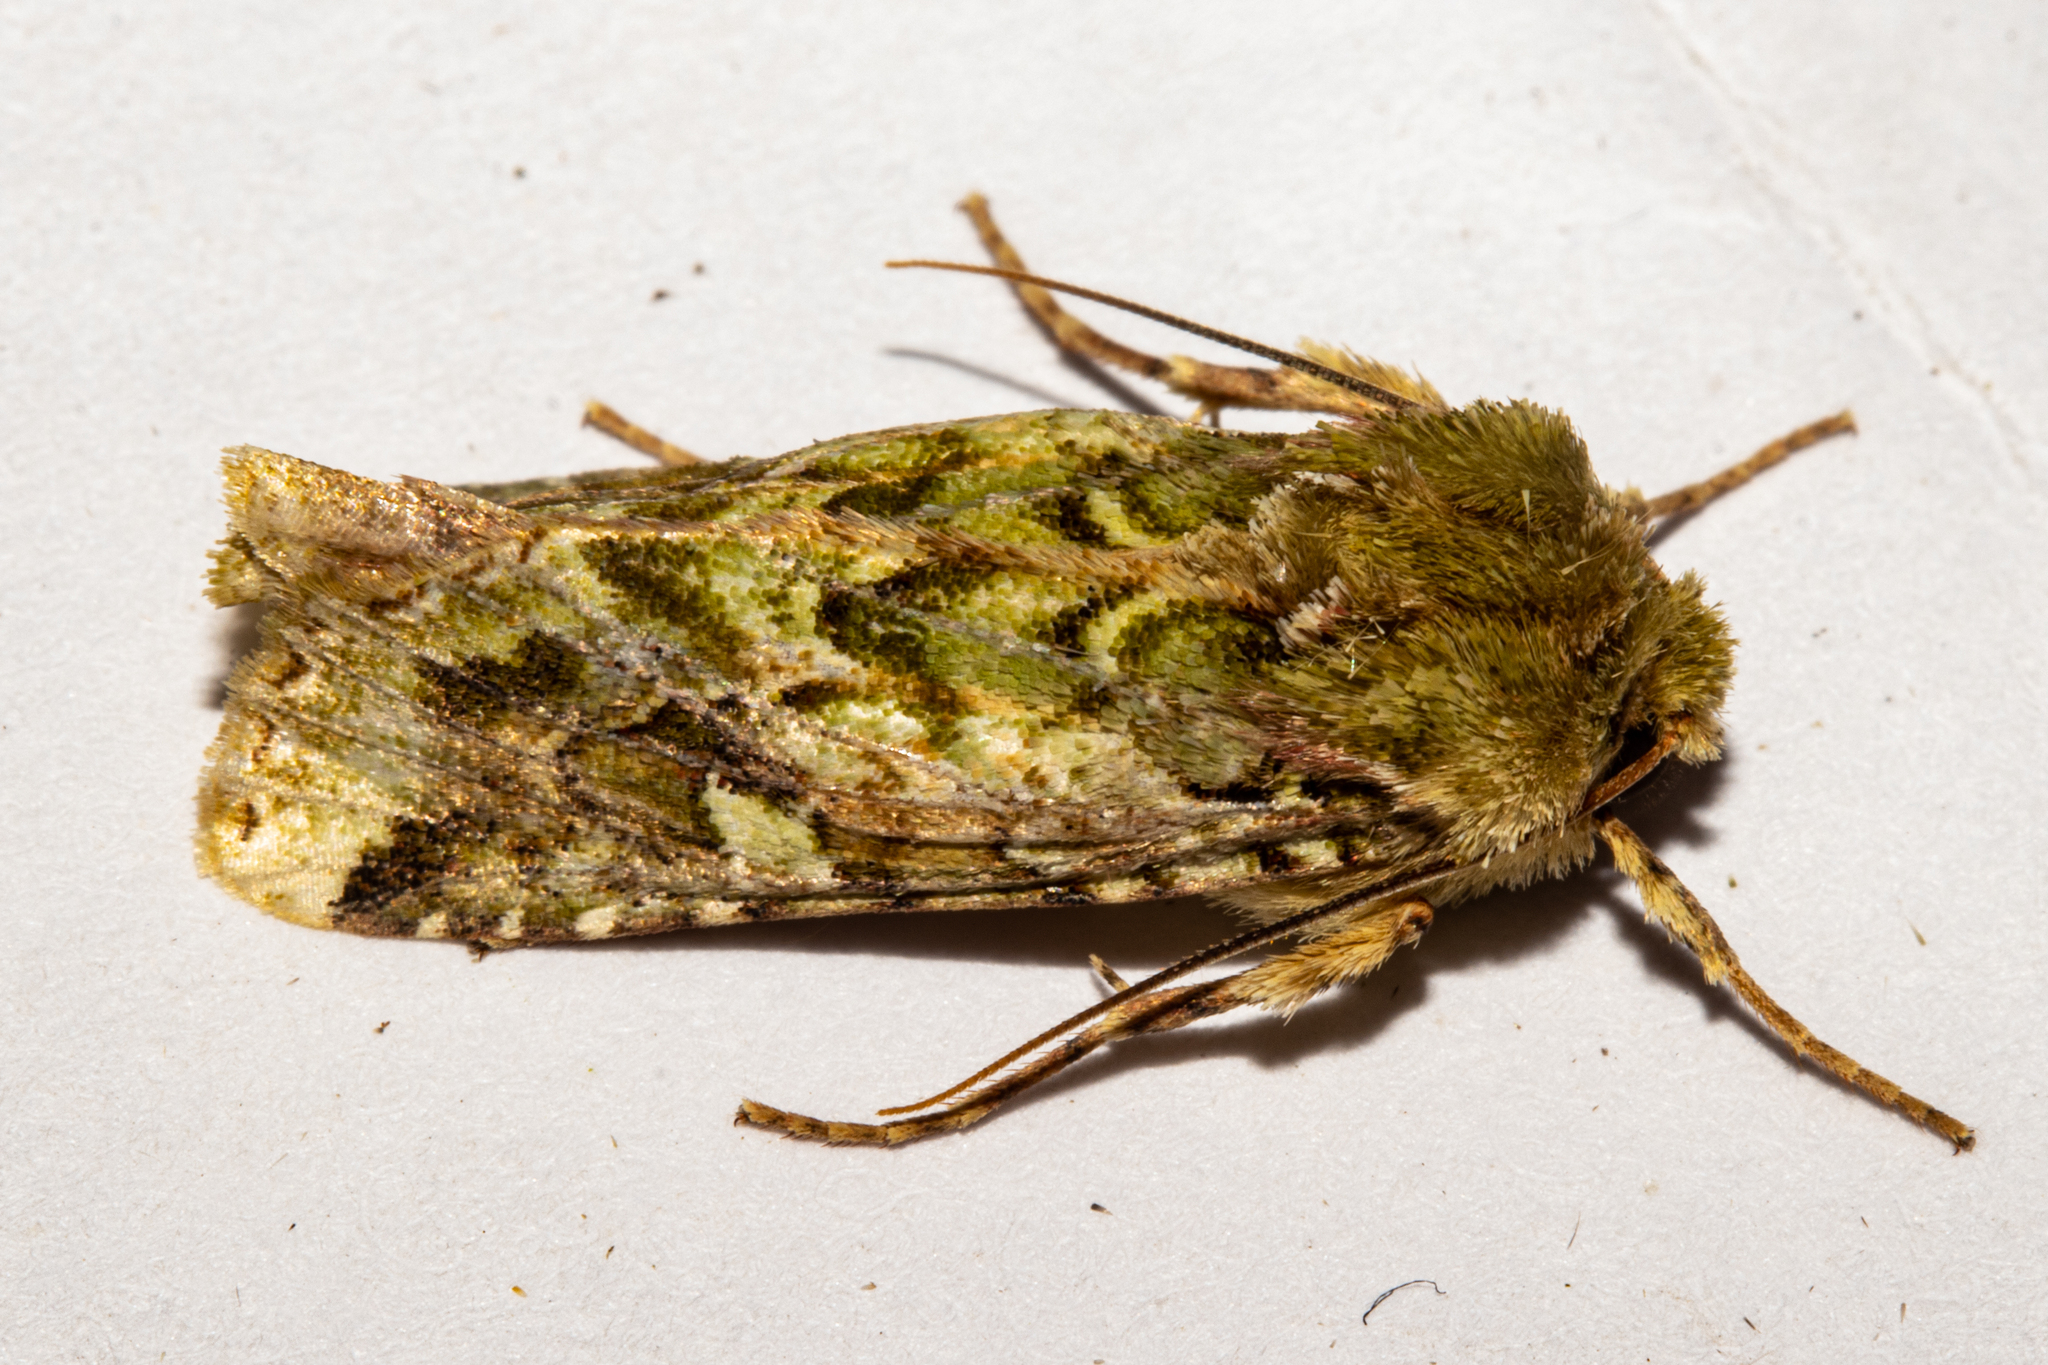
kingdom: Animalia
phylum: Arthropoda
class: Insecta
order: Lepidoptera
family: Noctuidae
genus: Feredayia
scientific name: Feredayia grammosa
